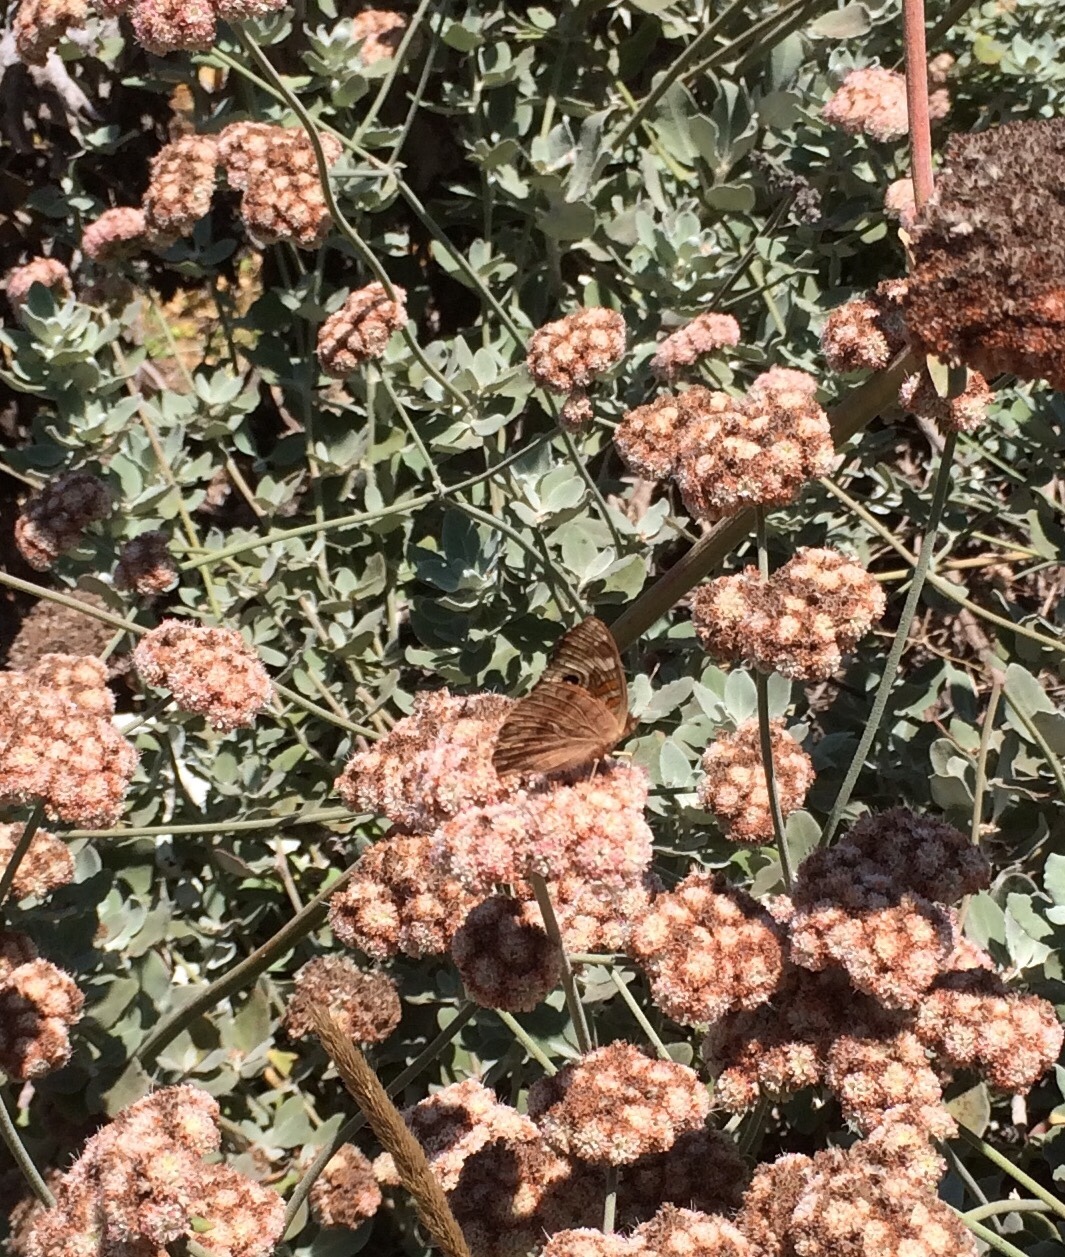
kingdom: Animalia
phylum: Arthropoda
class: Insecta
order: Lepidoptera
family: Nymphalidae
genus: Junonia
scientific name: Junonia grisea
